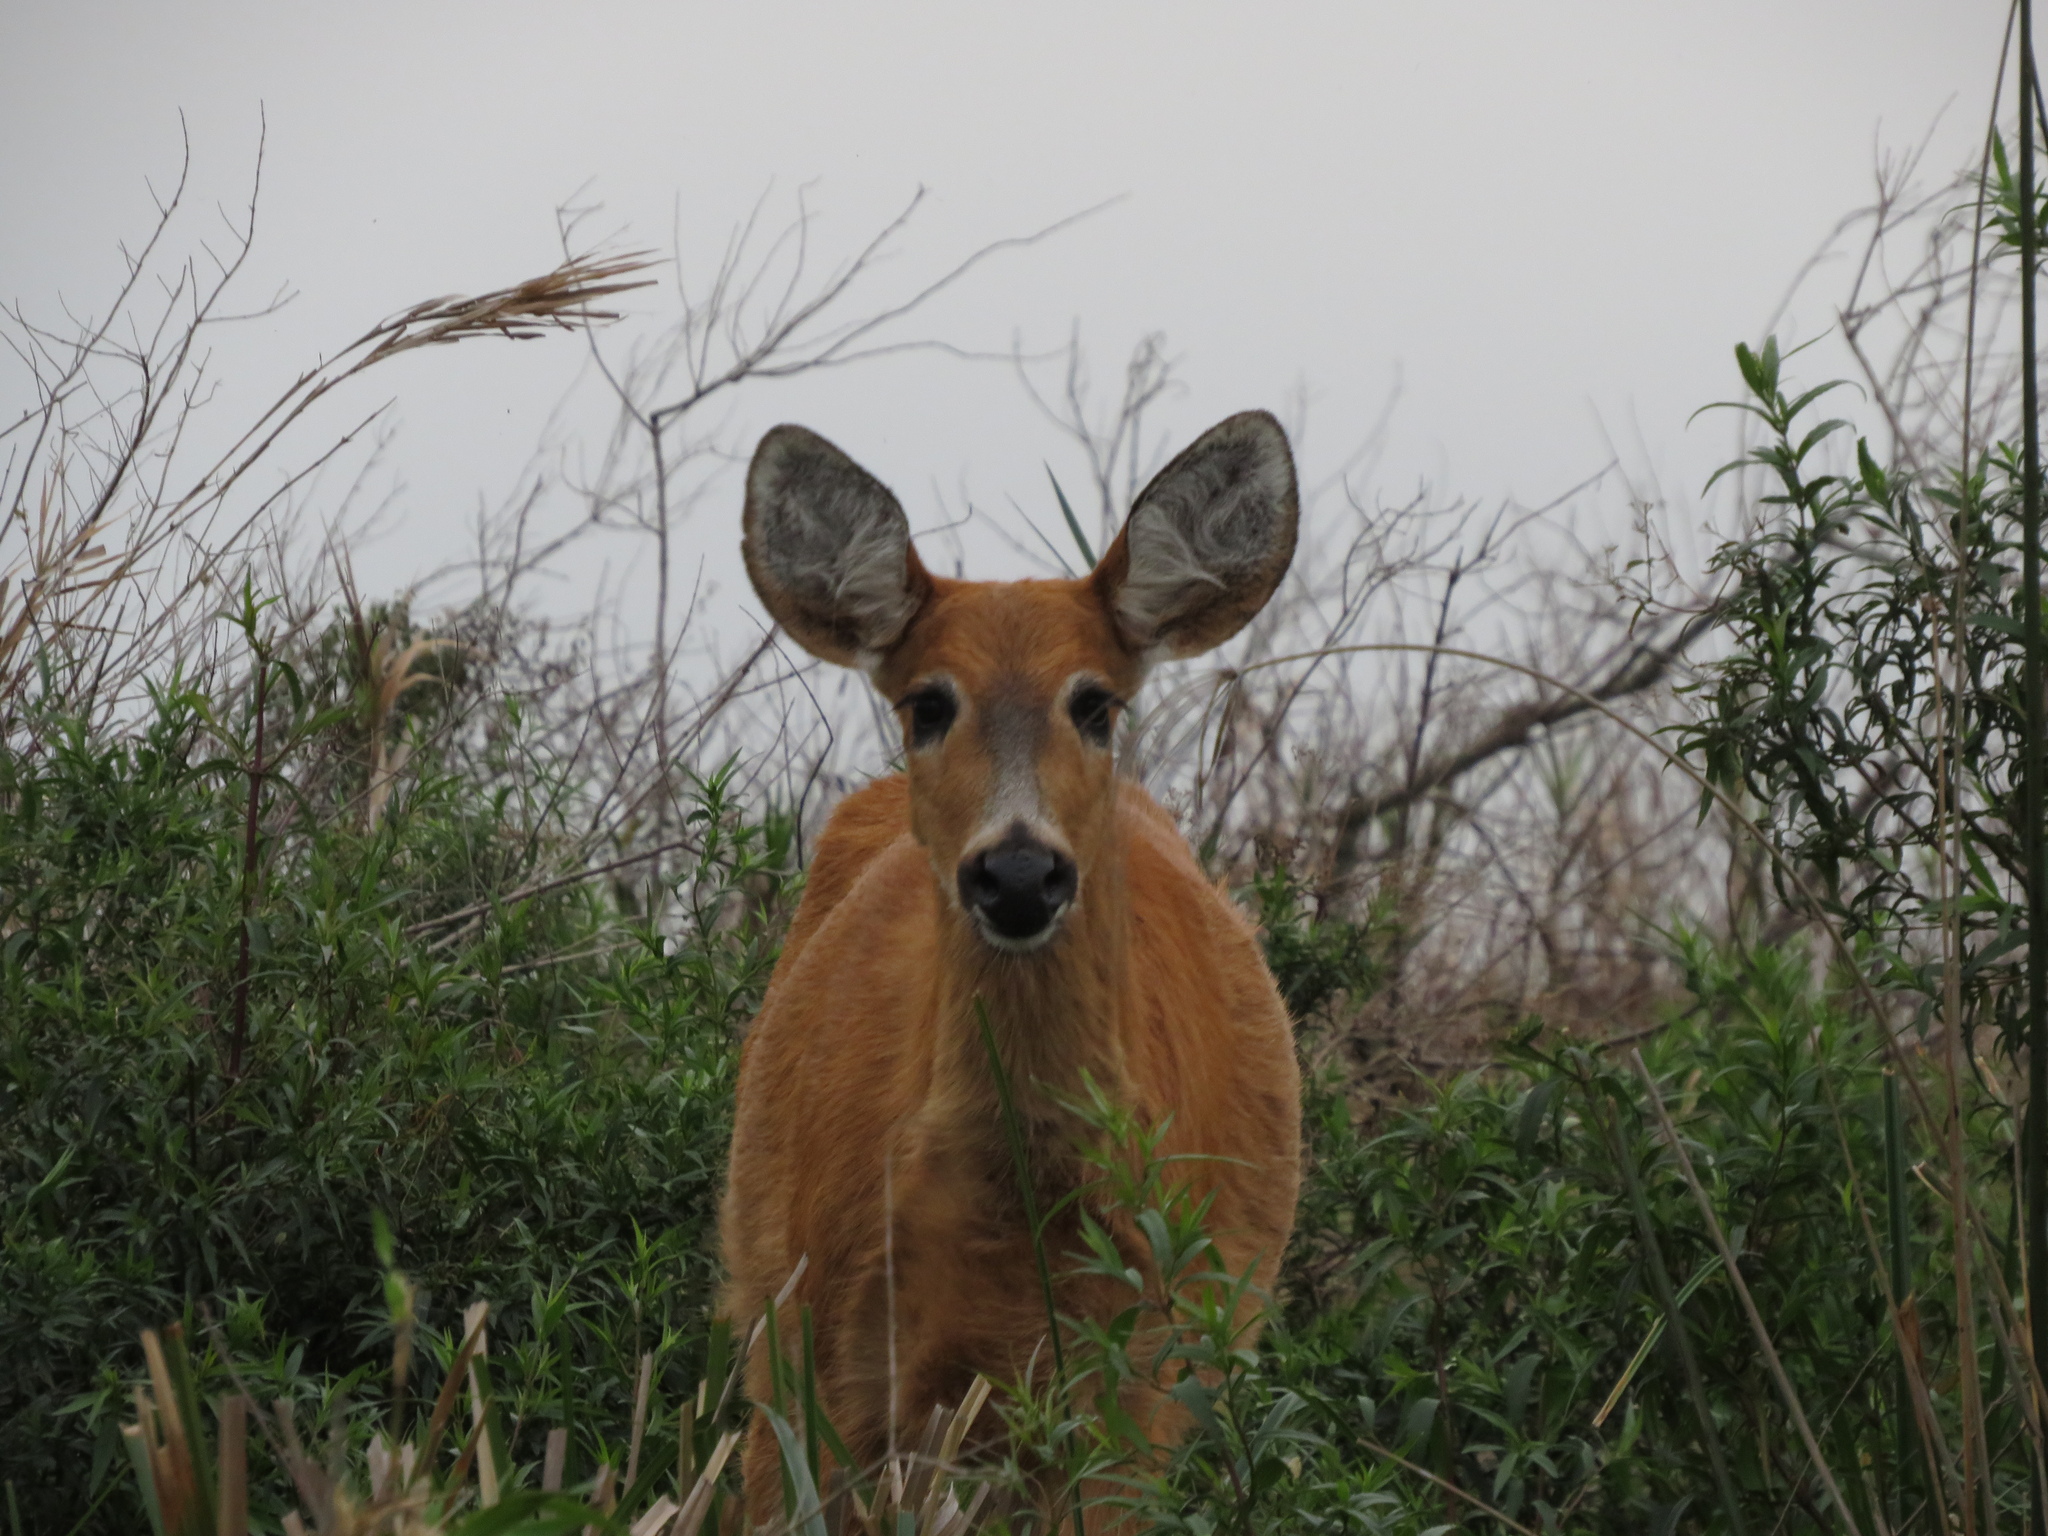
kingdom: Animalia
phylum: Chordata
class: Mammalia
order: Artiodactyla
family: Cervidae
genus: Blastocerus
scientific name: Blastocerus dichotomus
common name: Marsh deer
